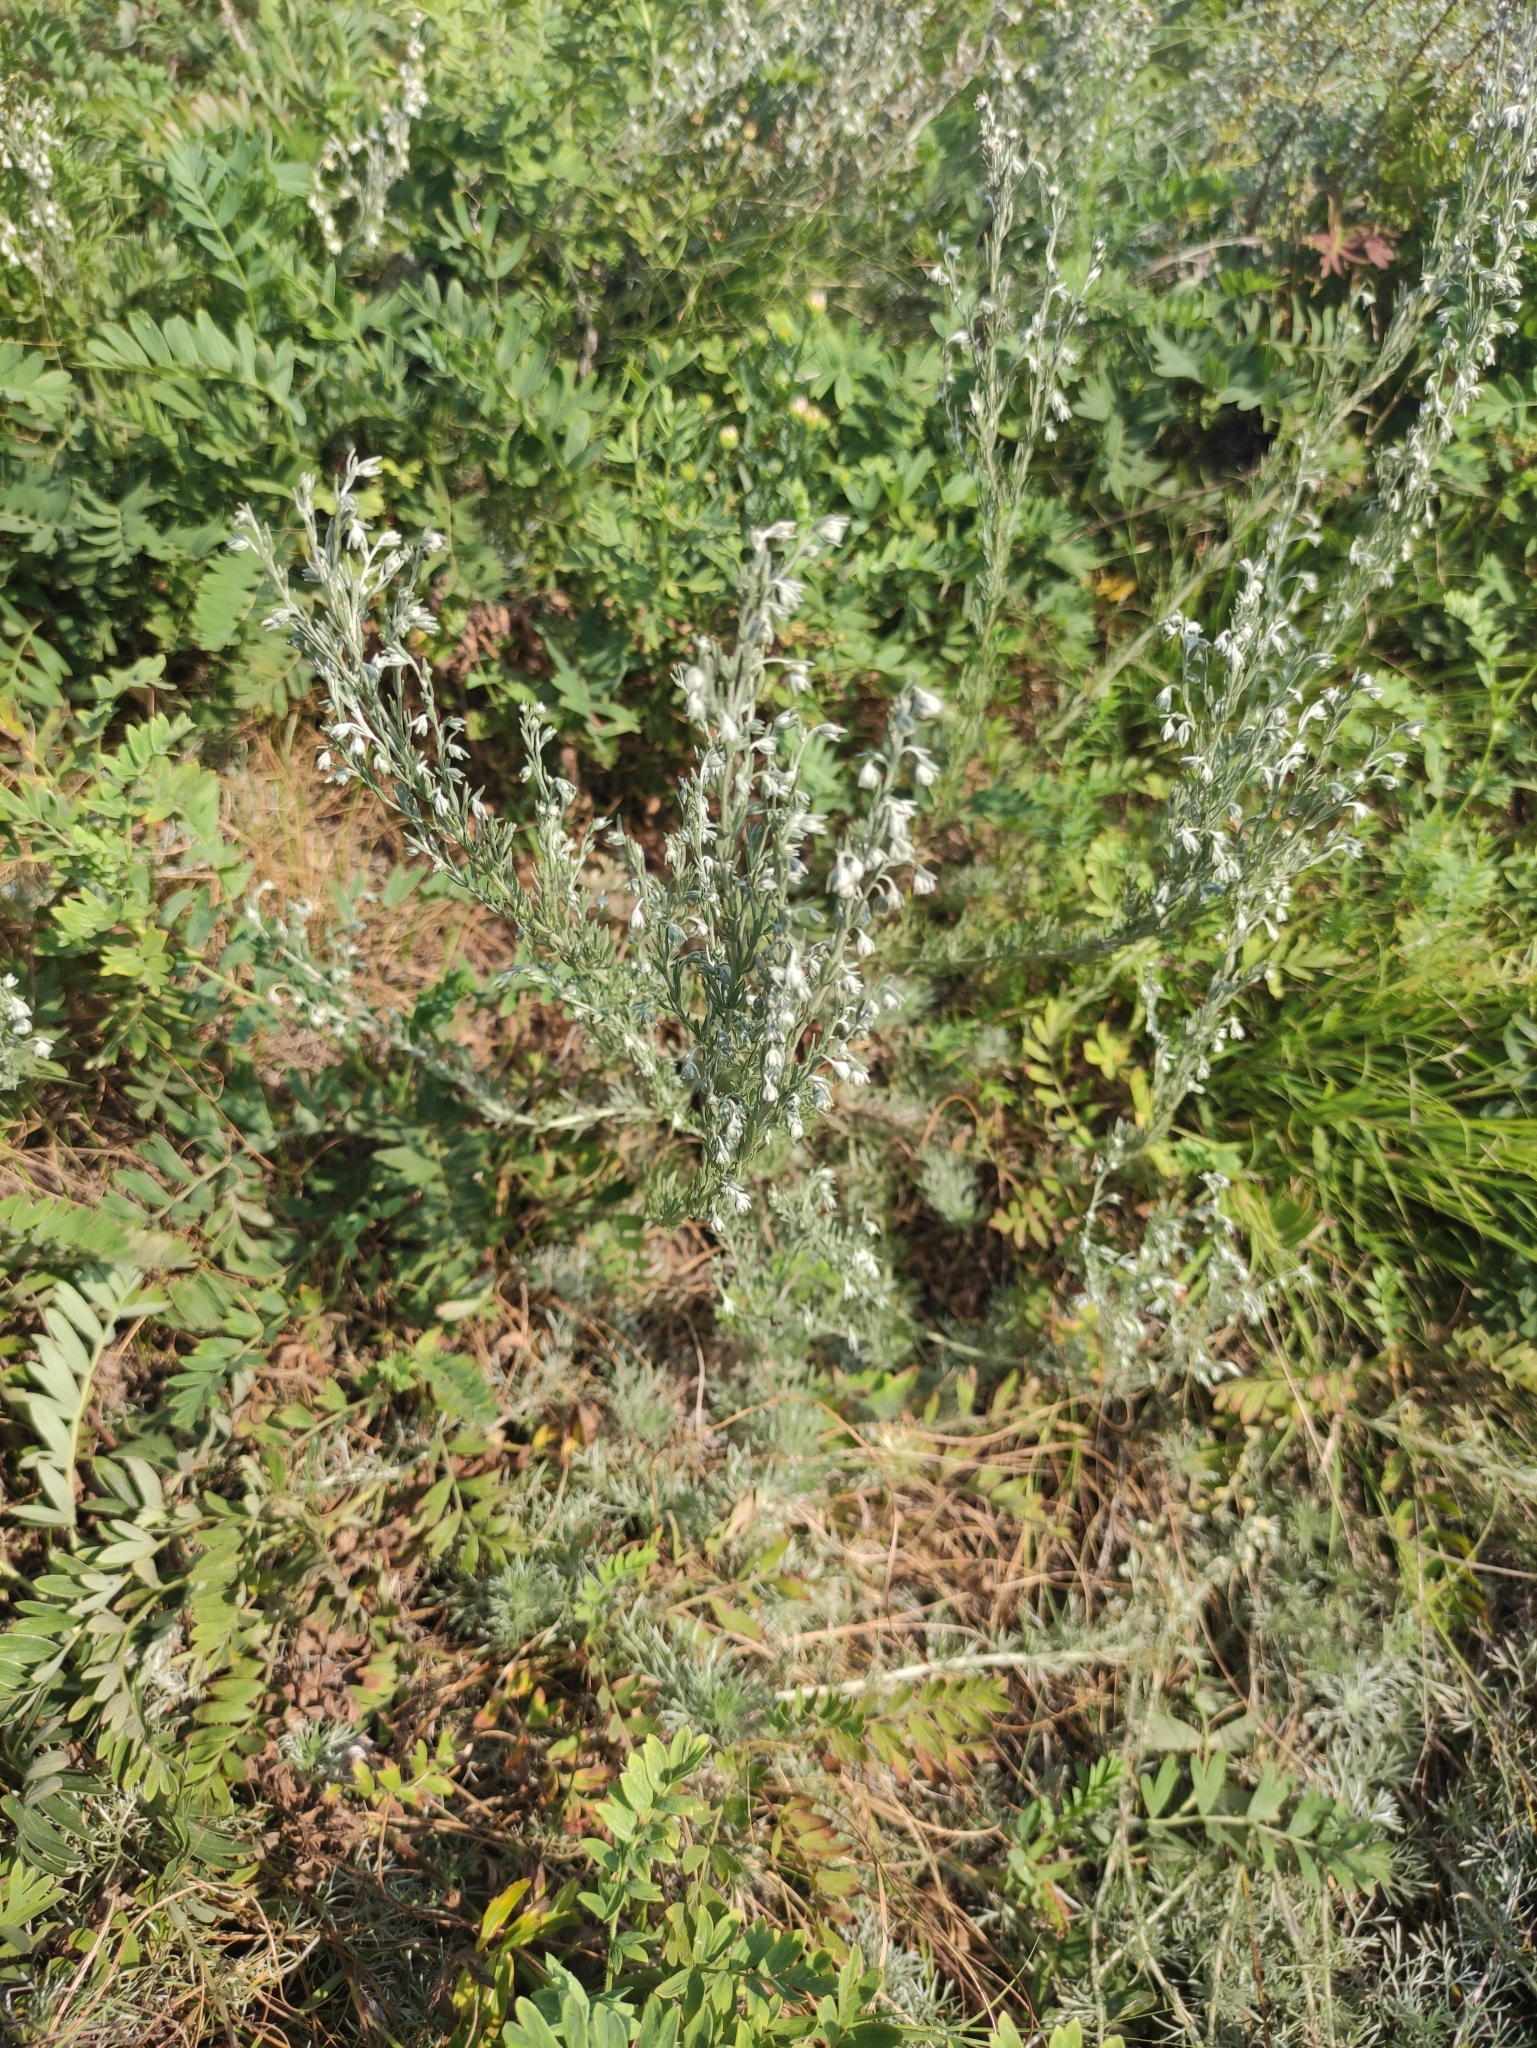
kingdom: Plantae
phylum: Tracheophyta
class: Magnoliopsida
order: Asterales
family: Asteraceae
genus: Artemisia
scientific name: Artemisia frigida
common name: Prairie sagewort
